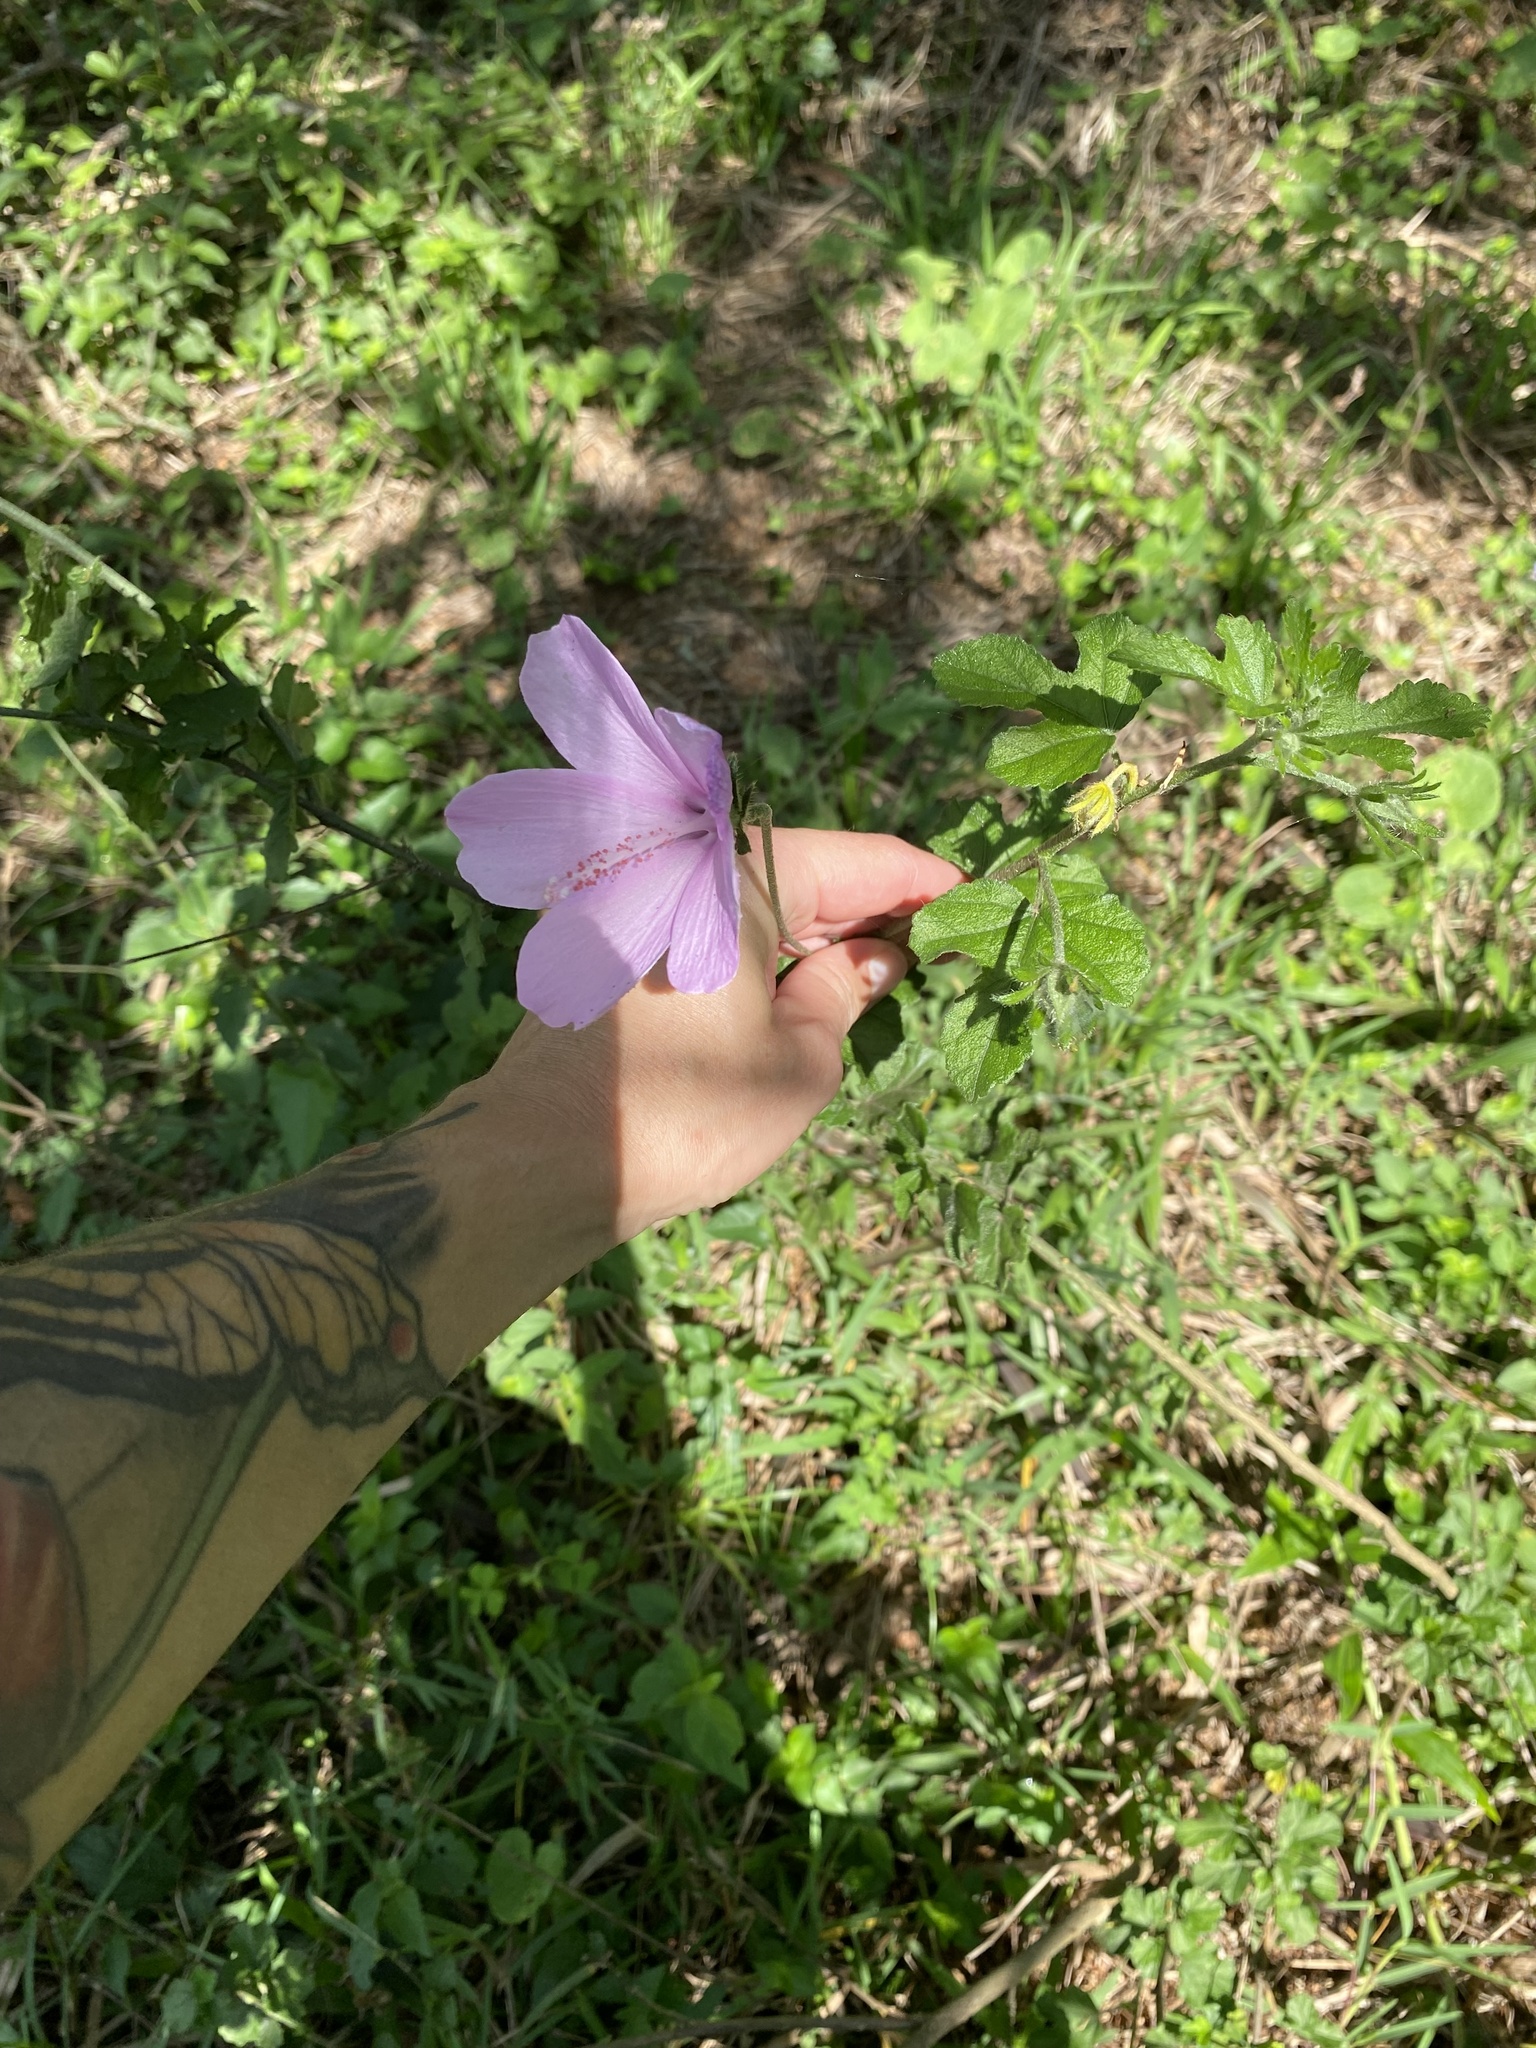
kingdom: Plantae
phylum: Tracheophyta
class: Magnoliopsida
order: Malvales
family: Malvaceae
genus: Hibiscus
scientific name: Hibiscus pedunculatus
